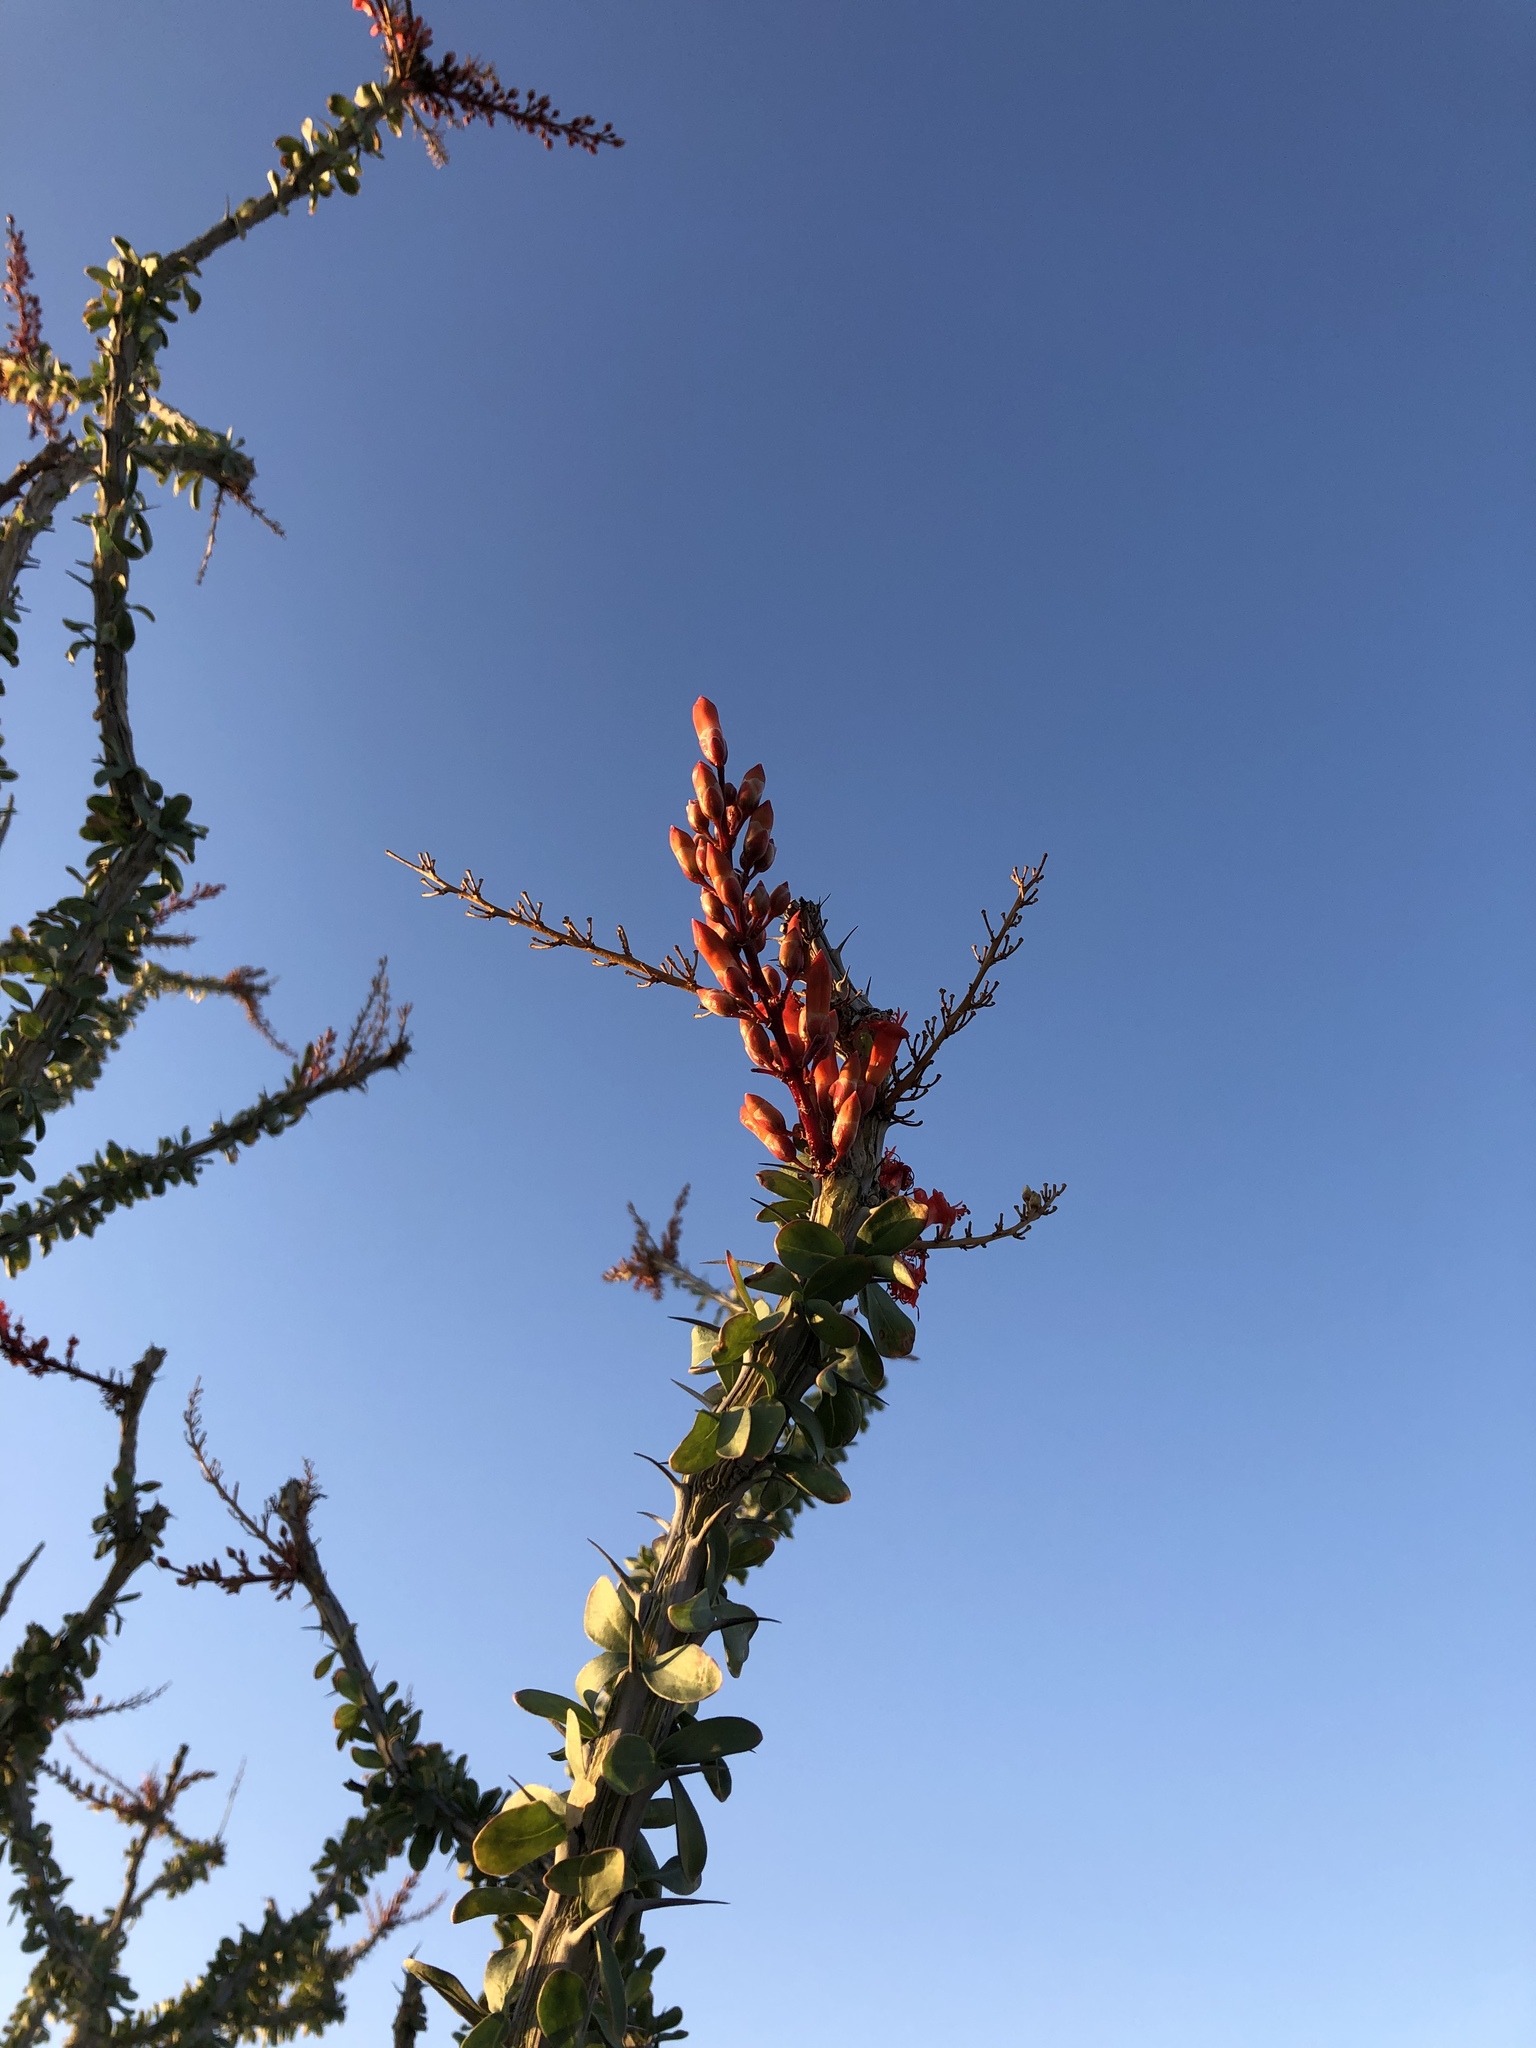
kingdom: Plantae
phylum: Tracheophyta
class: Magnoliopsida
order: Ericales
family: Fouquieriaceae
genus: Fouquieria
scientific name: Fouquieria splendens
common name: Vine-cactus
